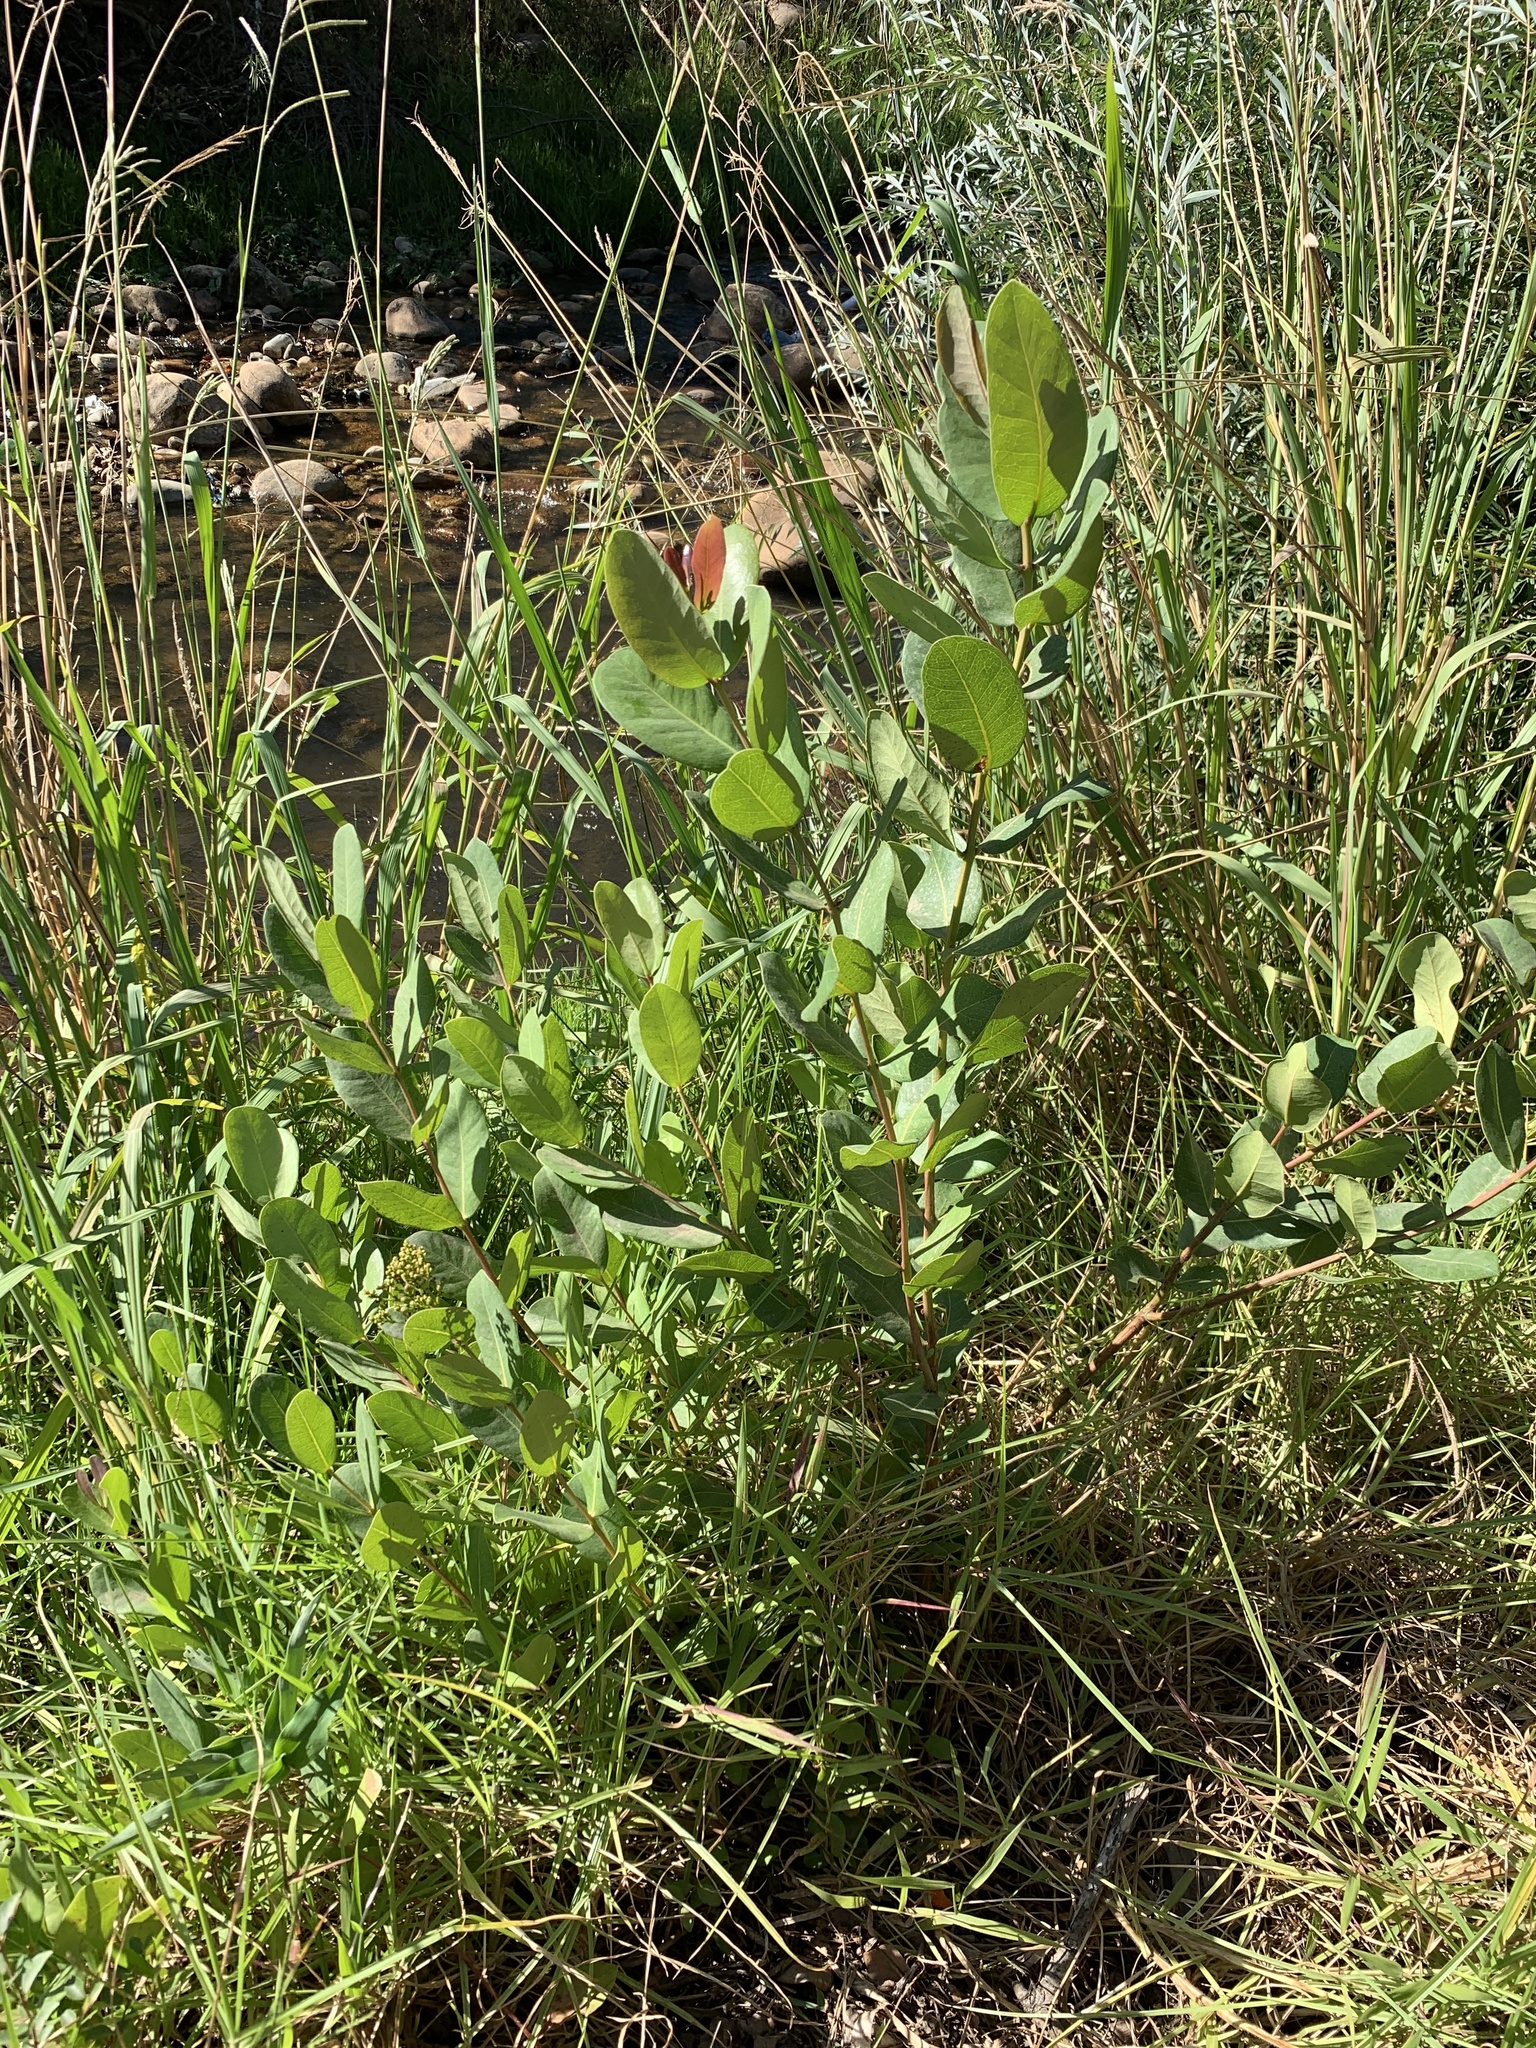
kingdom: Plantae
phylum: Tracheophyta
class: Magnoliopsida
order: Myrtales
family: Myrtaceae
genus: Syzygium
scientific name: Syzygium cordatum
